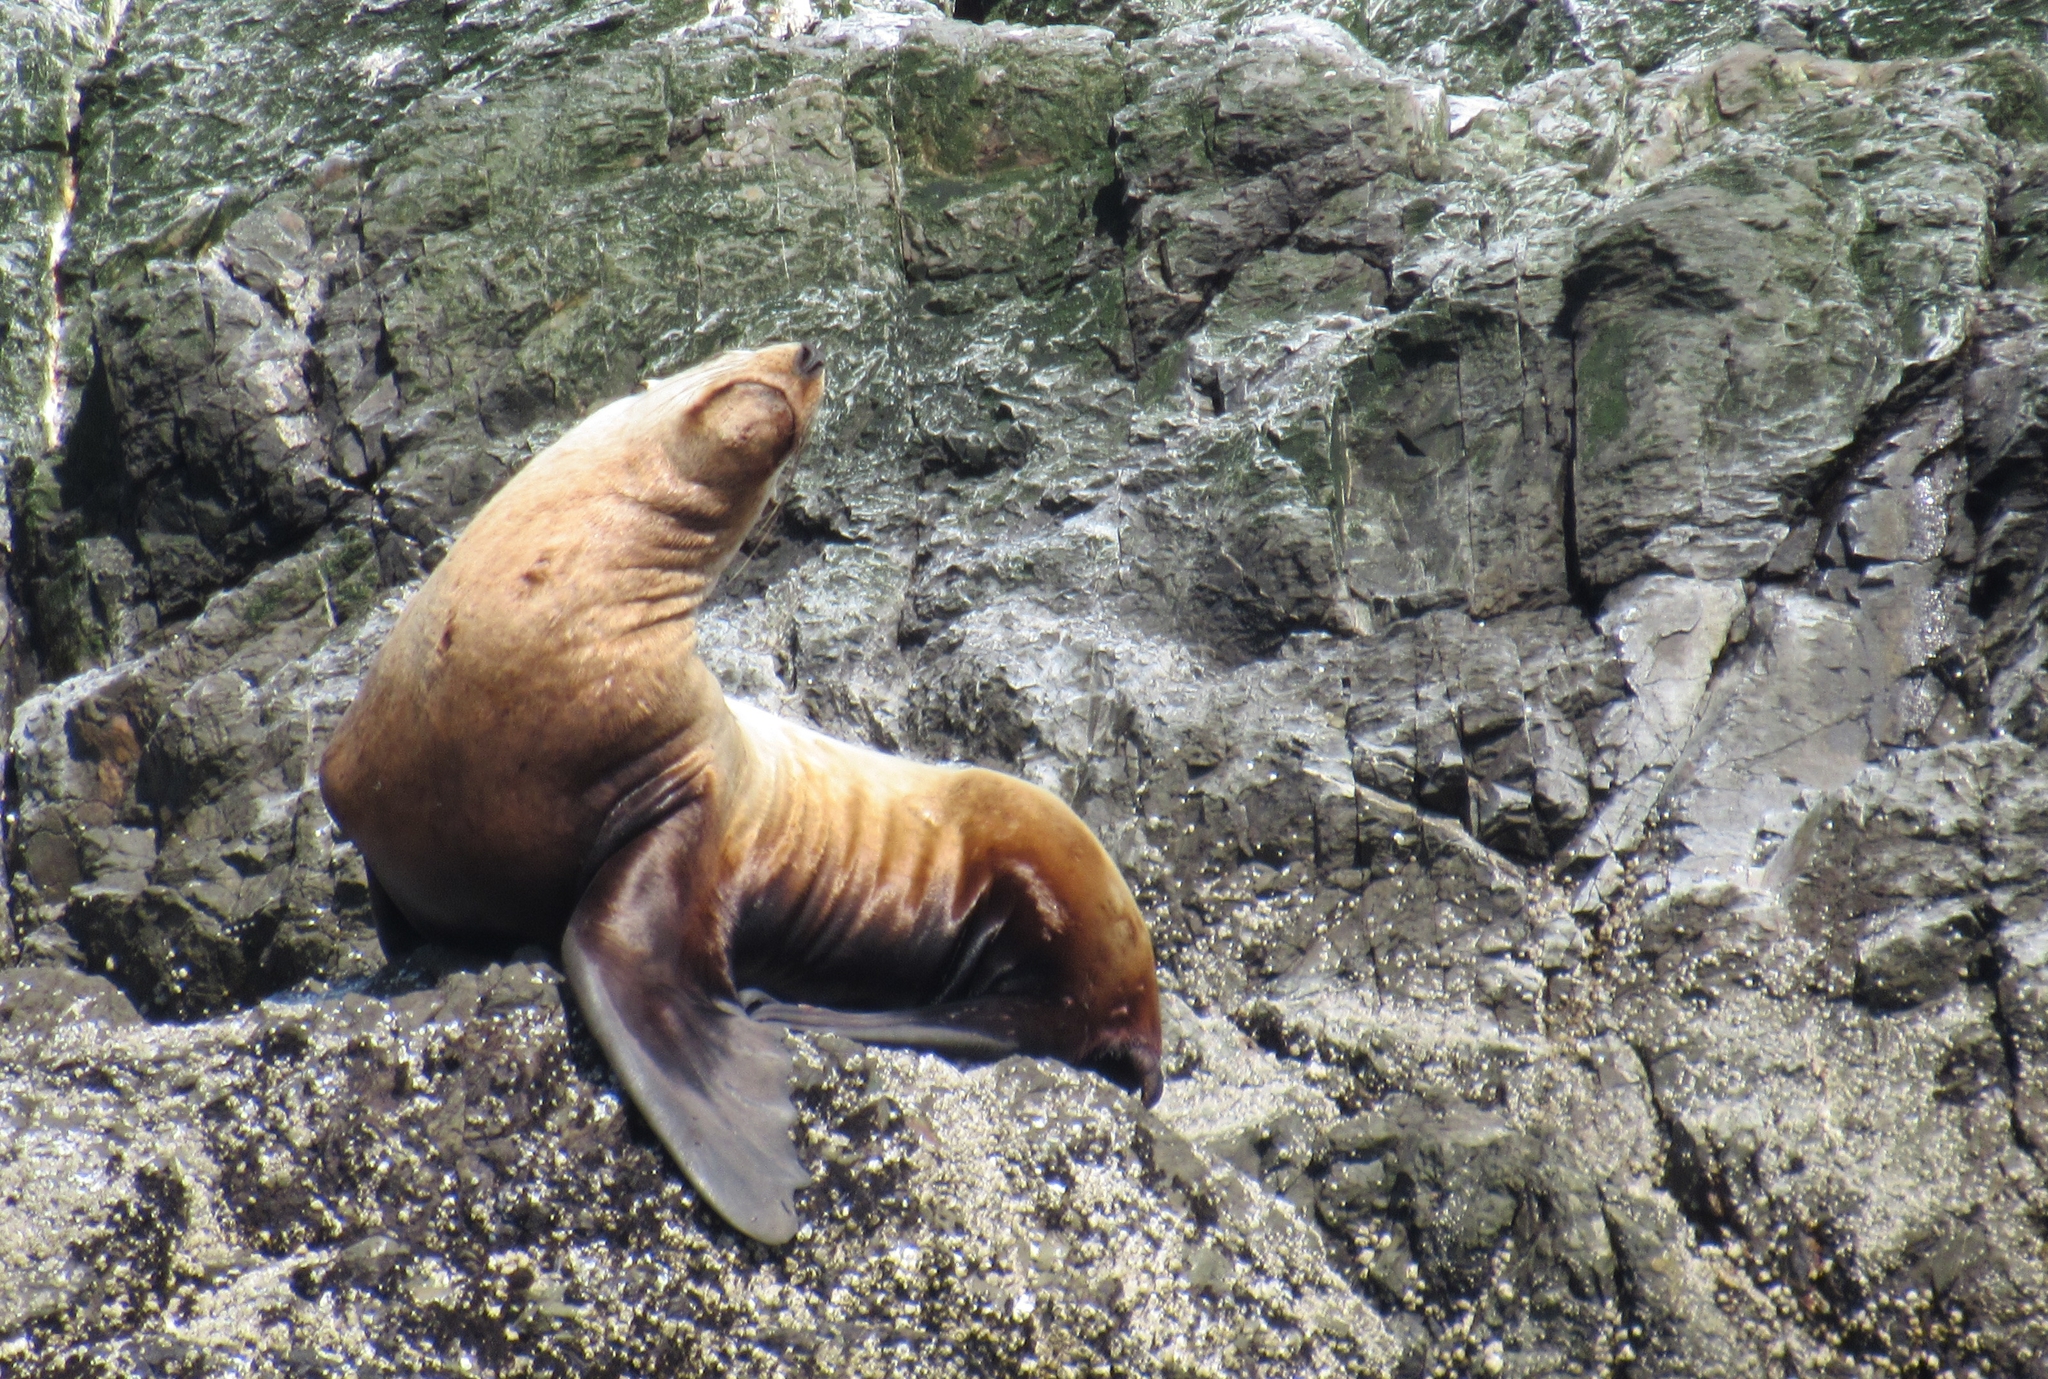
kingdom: Animalia
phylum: Chordata
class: Mammalia
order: Carnivora
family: Otariidae
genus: Eumetopias
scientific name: Eumetopias jubatus
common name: Steller sea lion
